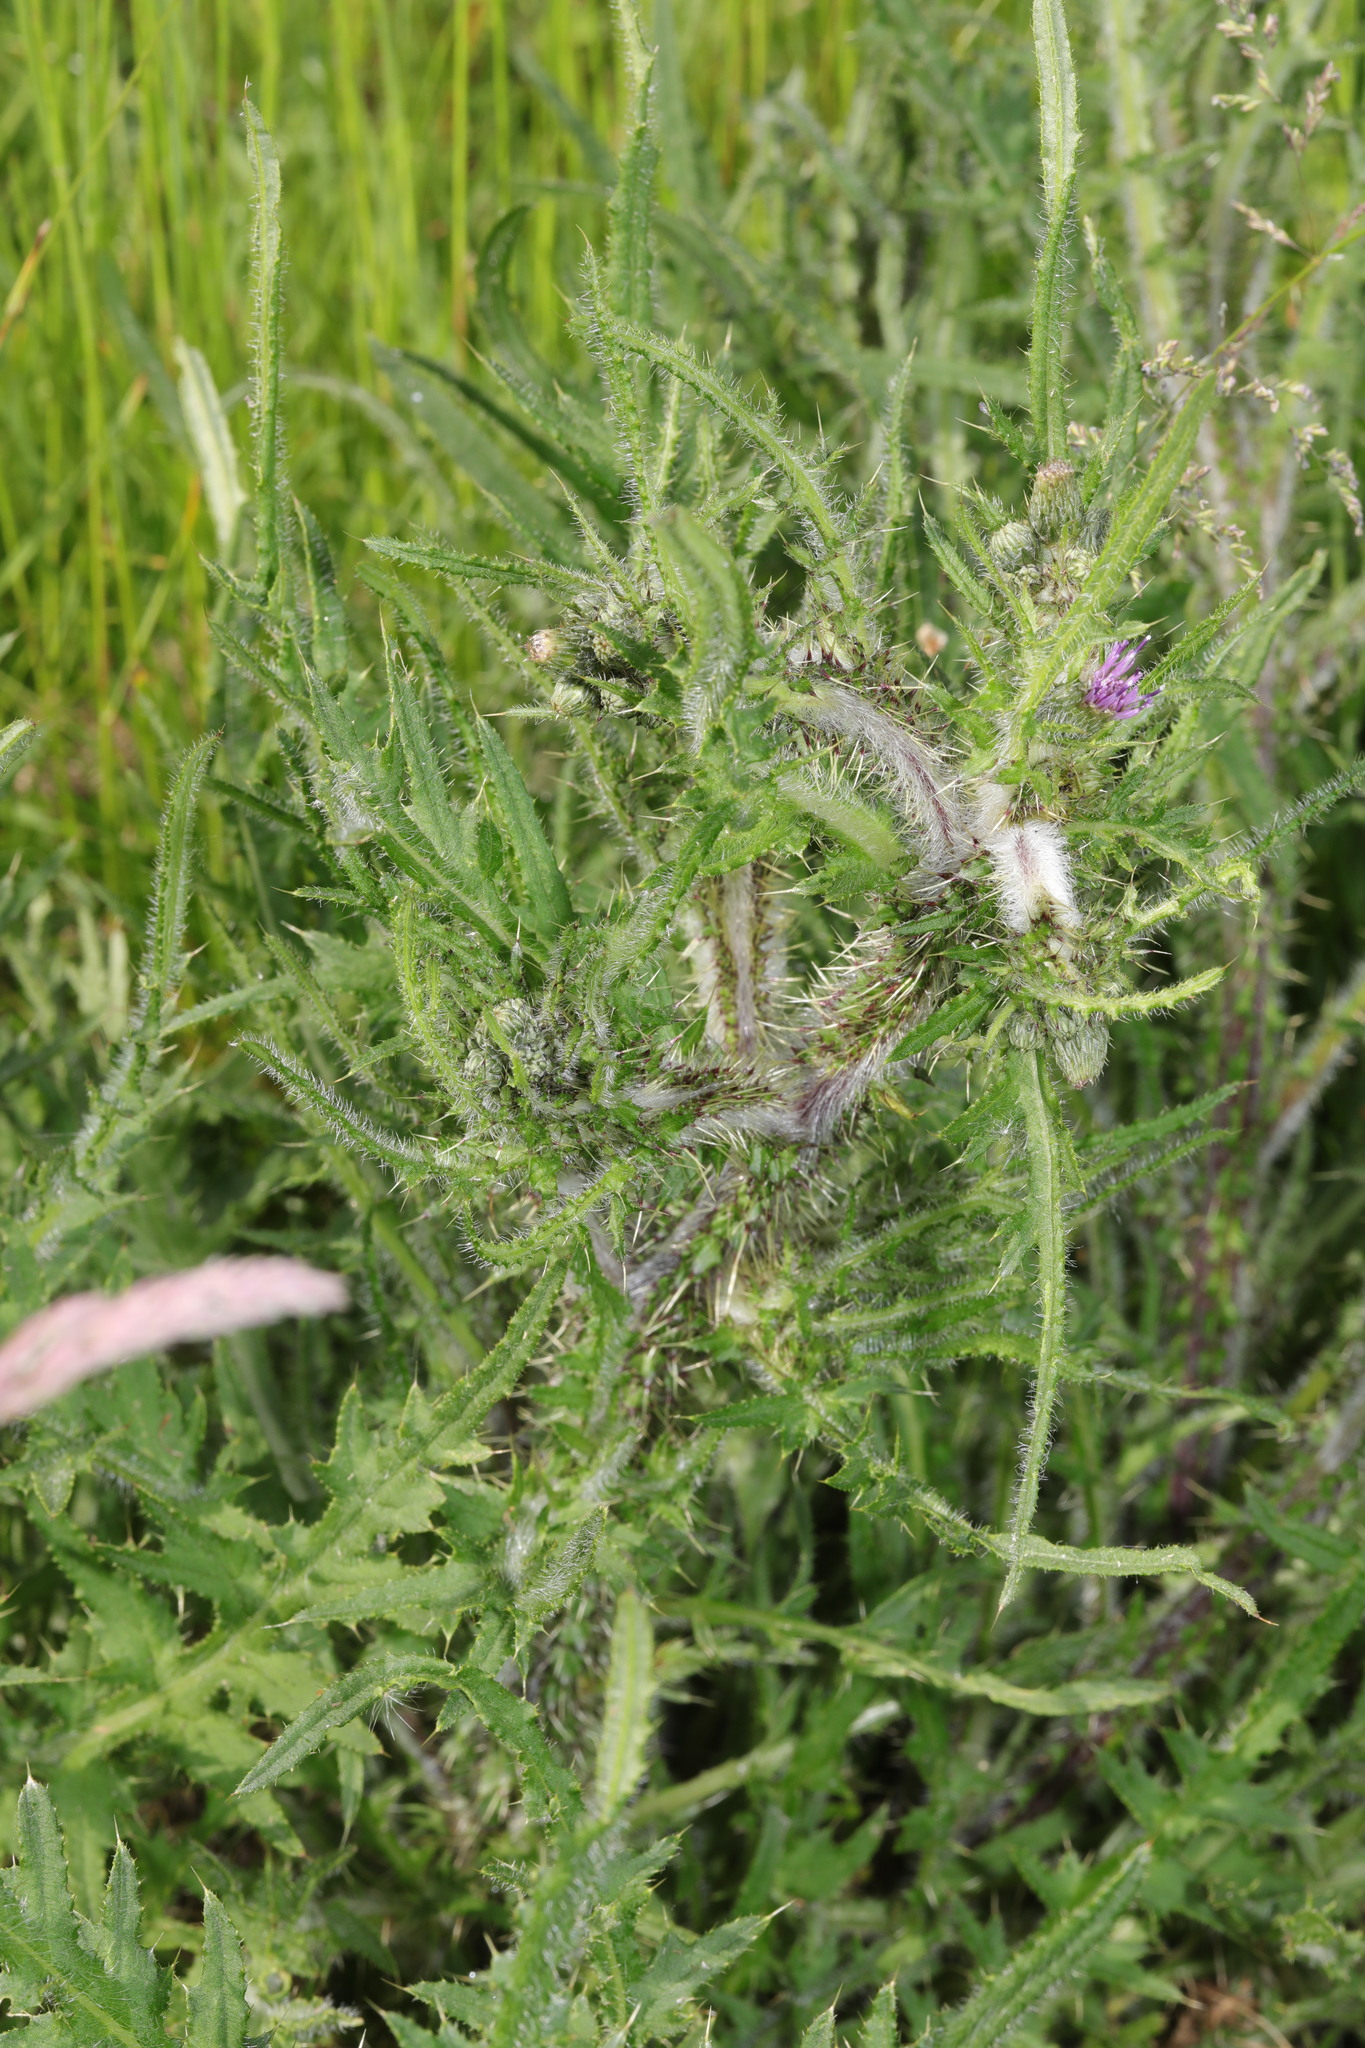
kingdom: Plantae
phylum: Tracheophyta
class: Magnoliopsida
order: Asterales
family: Asteraceae
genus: Cirsium
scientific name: Cirsium palustre
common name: Marsh thistle
